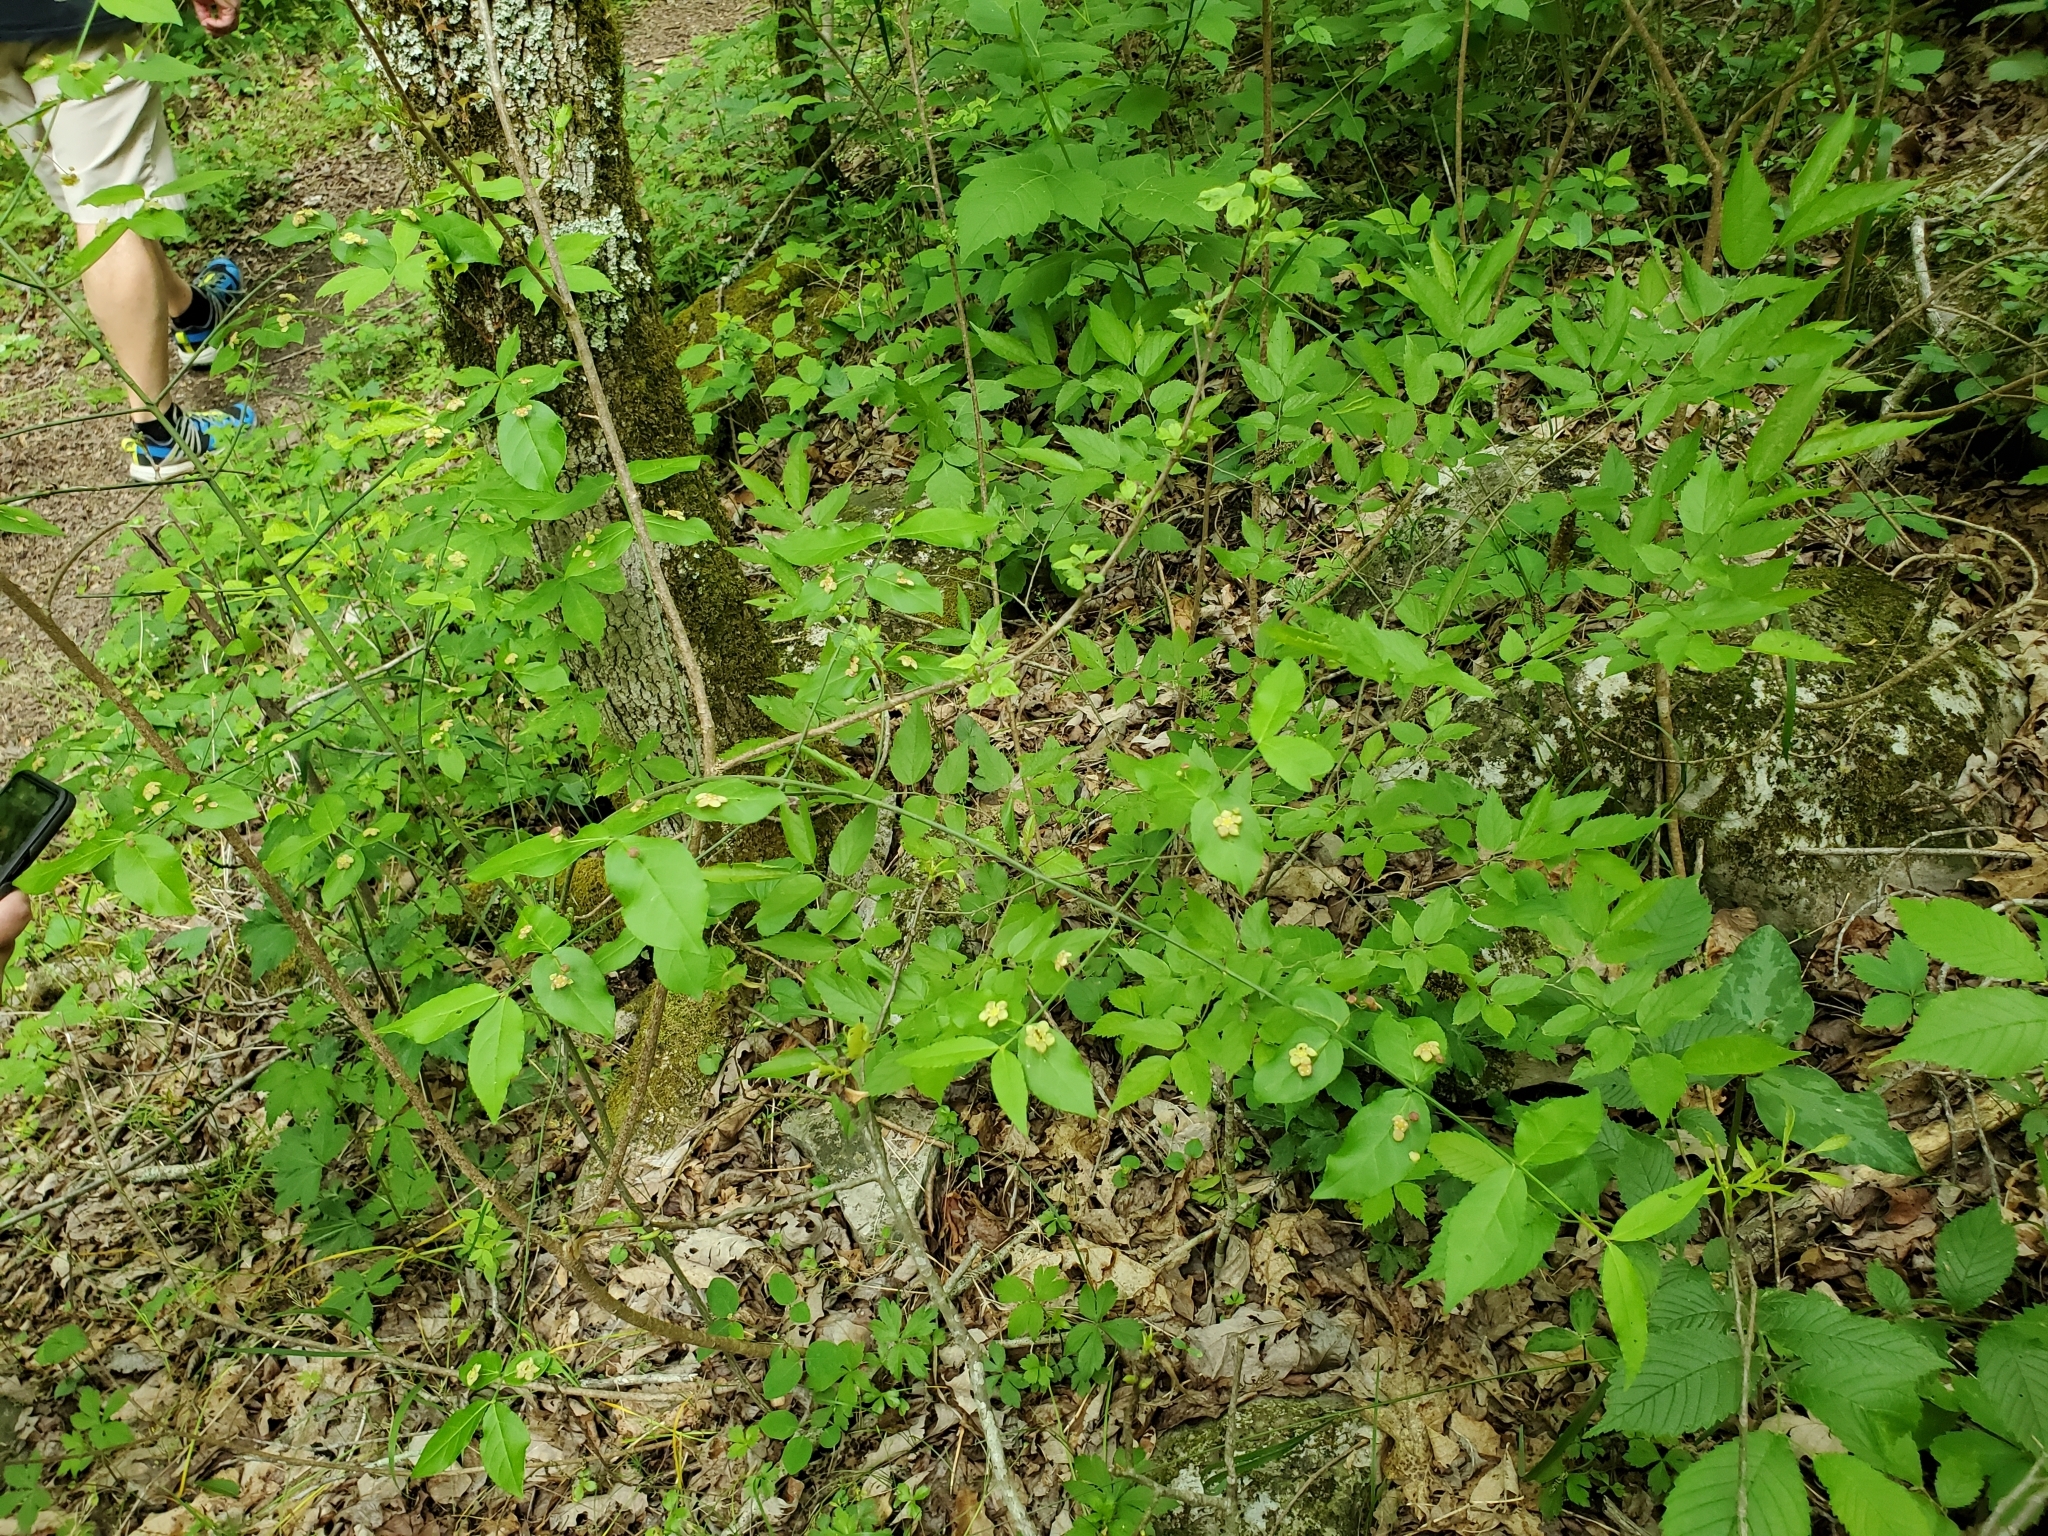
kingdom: Plantae
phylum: Tracheophyta
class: Magnoliopsida
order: Celastrales
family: Celastraceae
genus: Euonymus
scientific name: Euonymus americanus
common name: Bursting-heart
